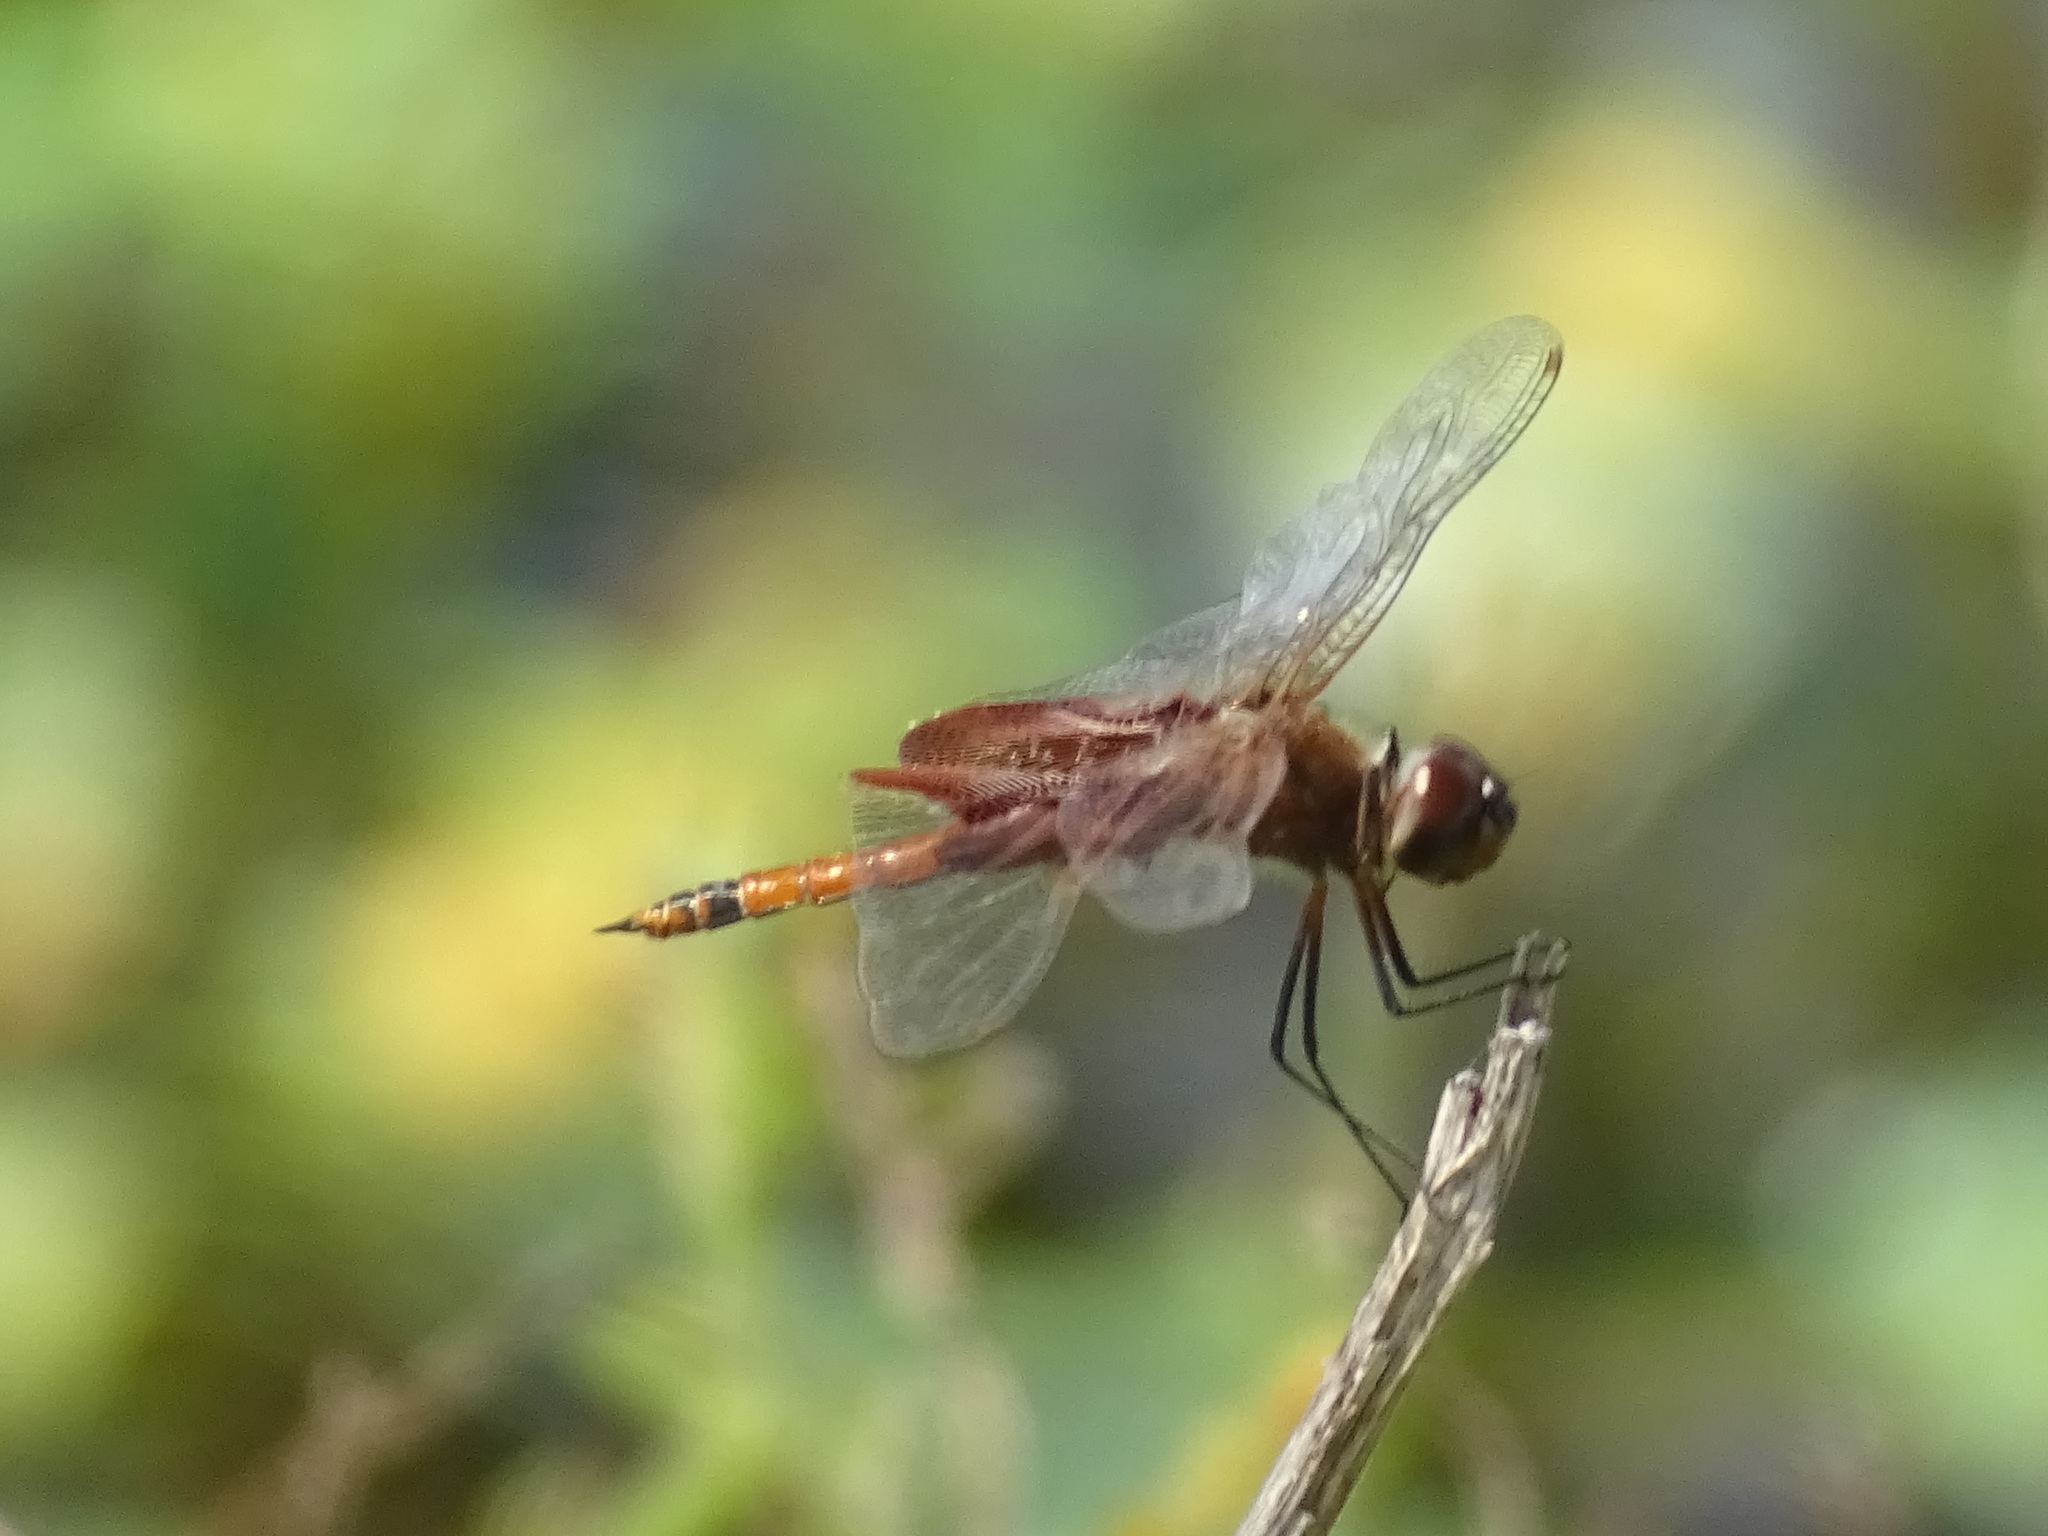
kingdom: Animalia
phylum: Arthropoda
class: Insecta
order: Odonata
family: Libellulidae
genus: Tramea
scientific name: Tramea carolina
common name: Carolina saddlebags
